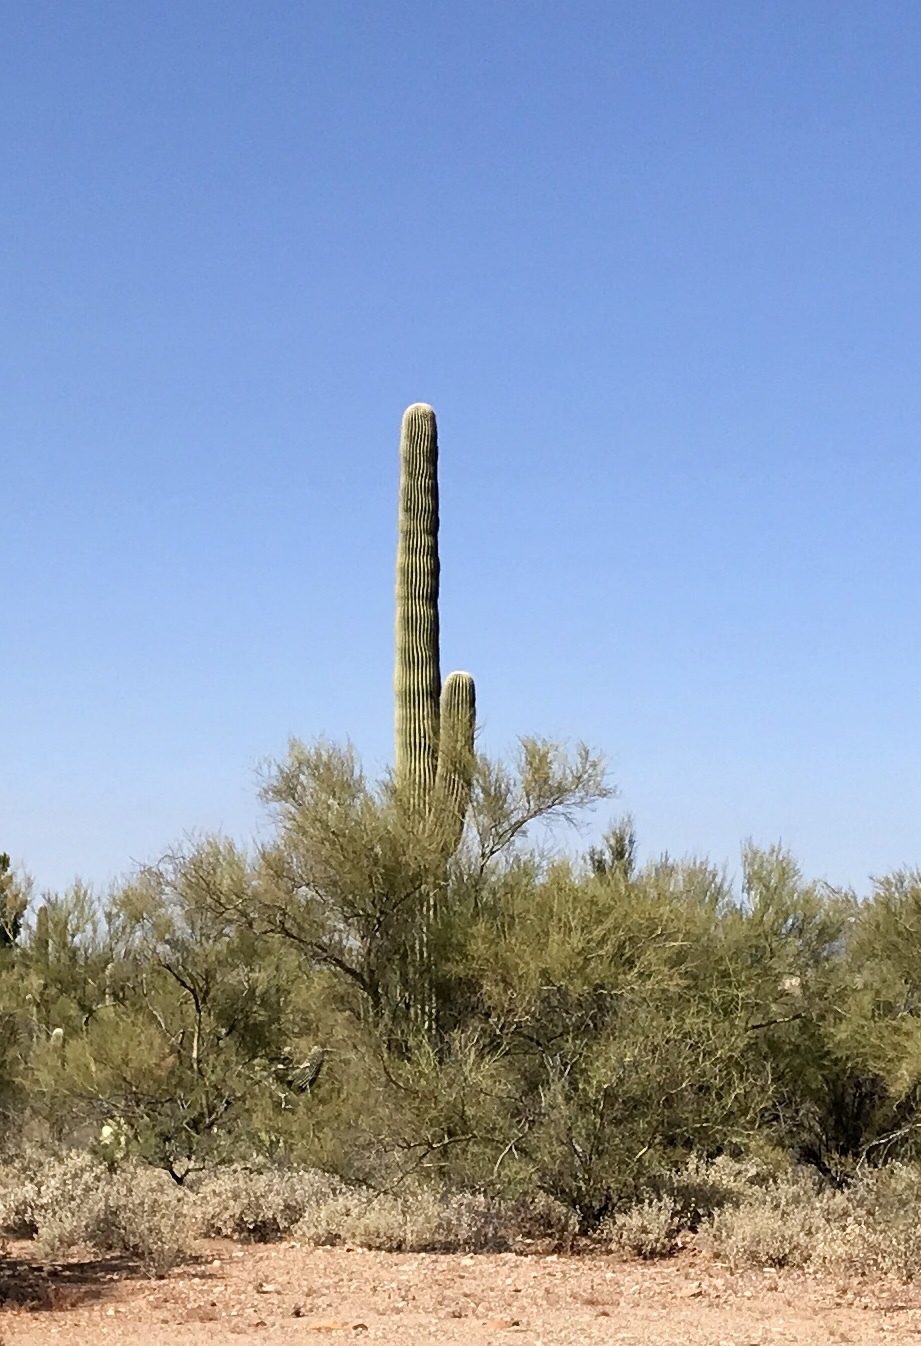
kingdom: Plantae
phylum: Tracheophyta
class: Magnoliopsida
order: Caryophyllales
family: Cactaceae
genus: Carnegiea
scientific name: Carnegiea gigantea
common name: Saguaro
